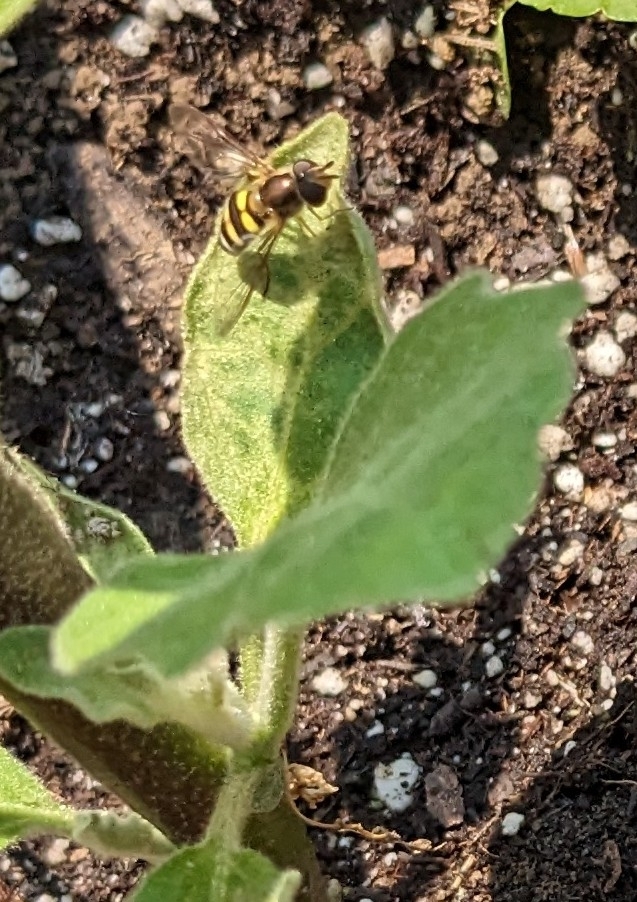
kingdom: Animalia
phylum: Arthropoda
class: Insecta
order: Diptera
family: Syrphidae
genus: Eupeodes
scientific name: Eupeodes
